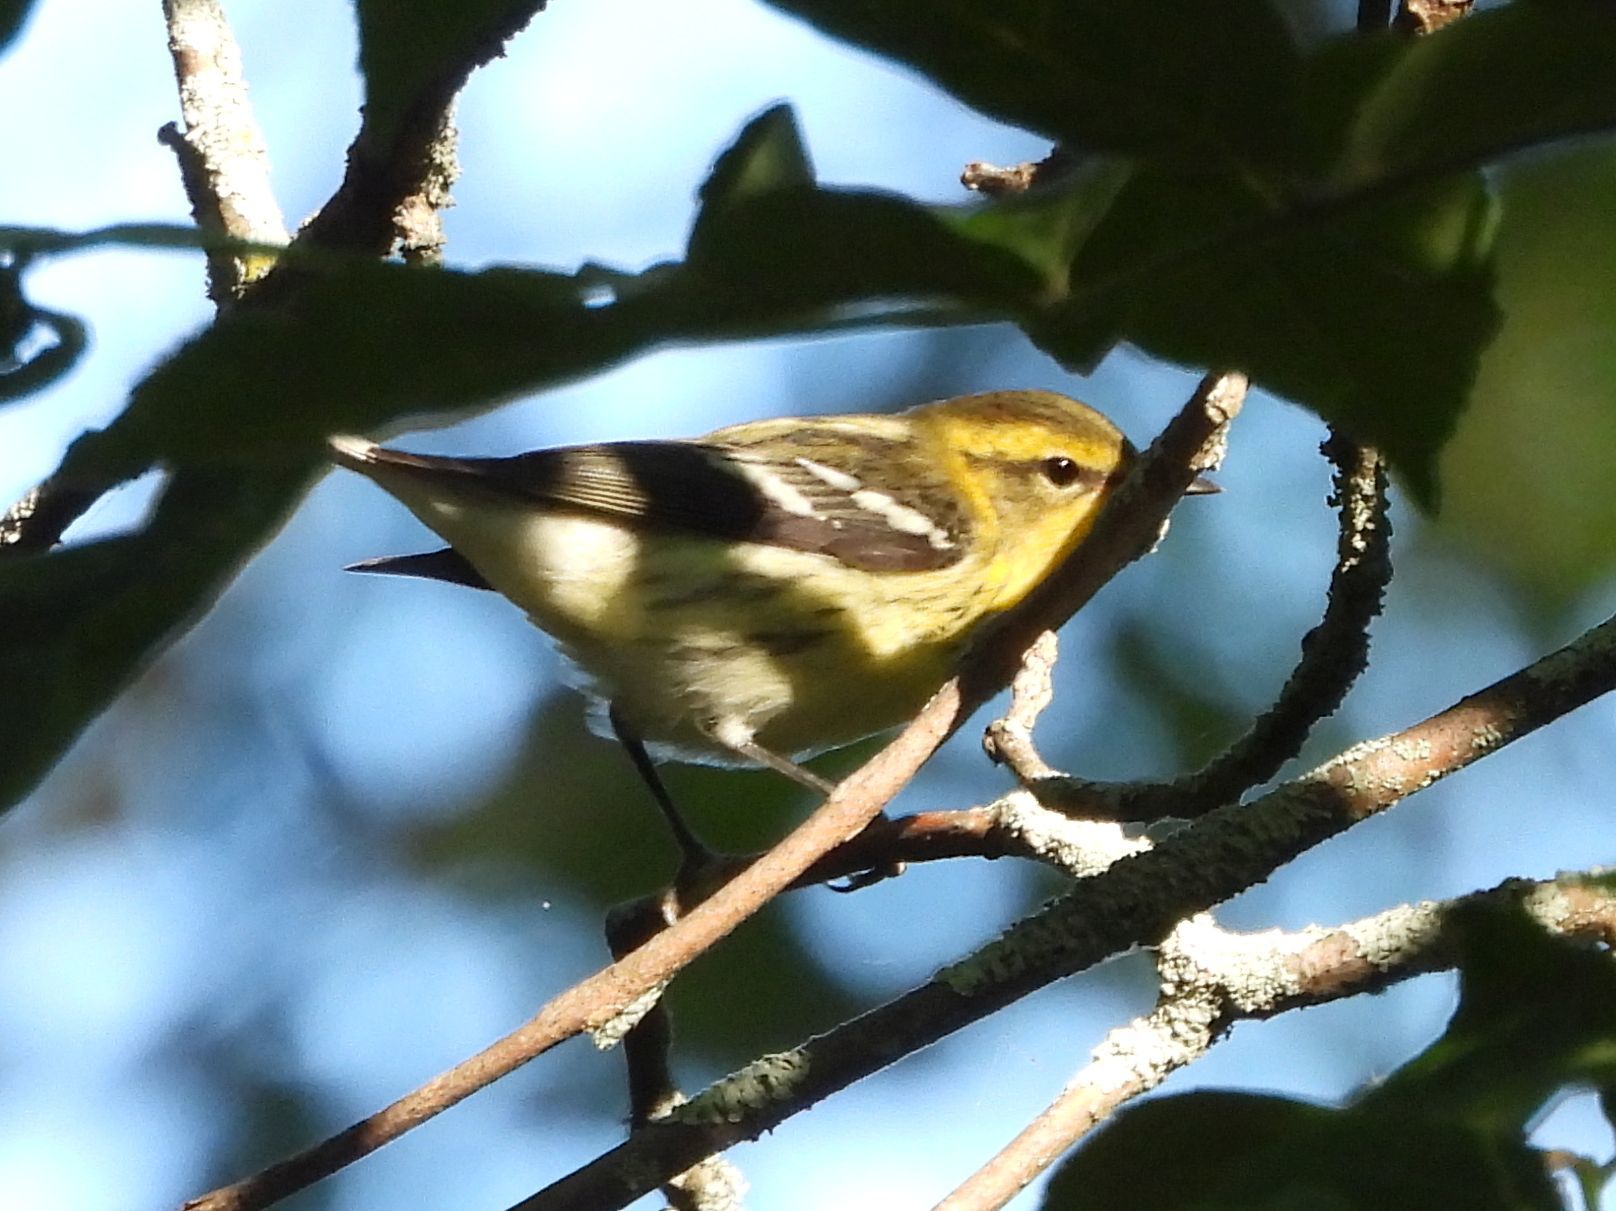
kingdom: Animalia
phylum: Chordata
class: Aves
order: Passeriformes
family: Parulidae
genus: Setophaga
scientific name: Setophaga fusca
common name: Blackburnian warbler
